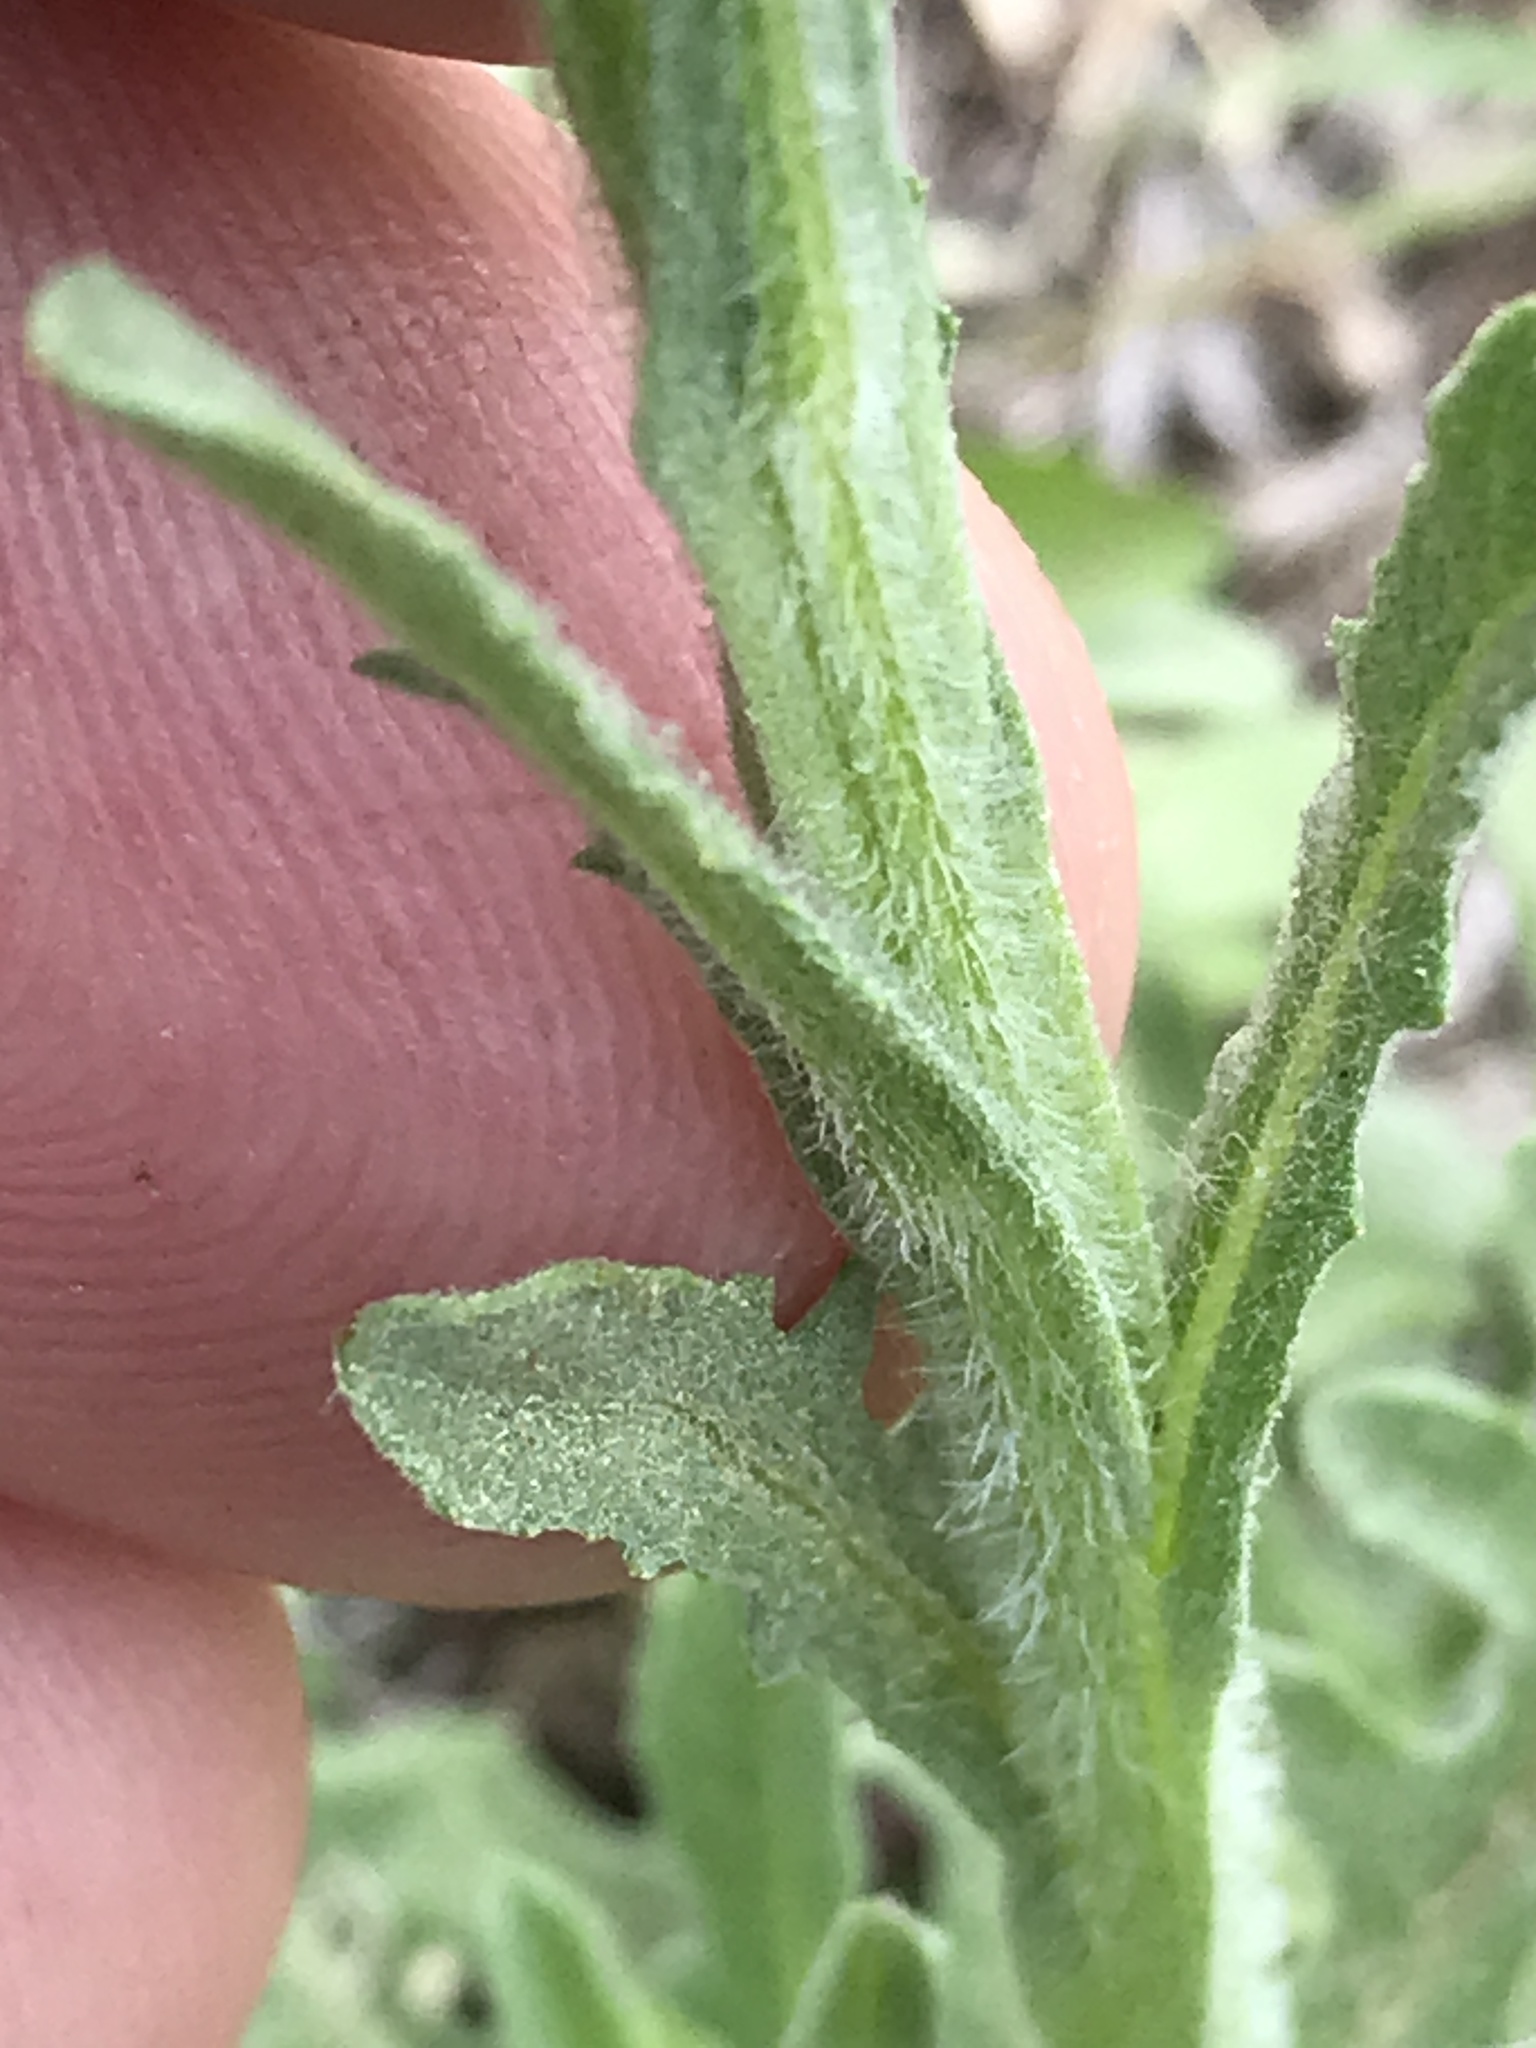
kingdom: Plantae
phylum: Tracheophyta
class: Magnoliopsida
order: Asterales
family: Asteraceae
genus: Centaurea
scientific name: Centaurea melitensis
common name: Maltese star-thistle
